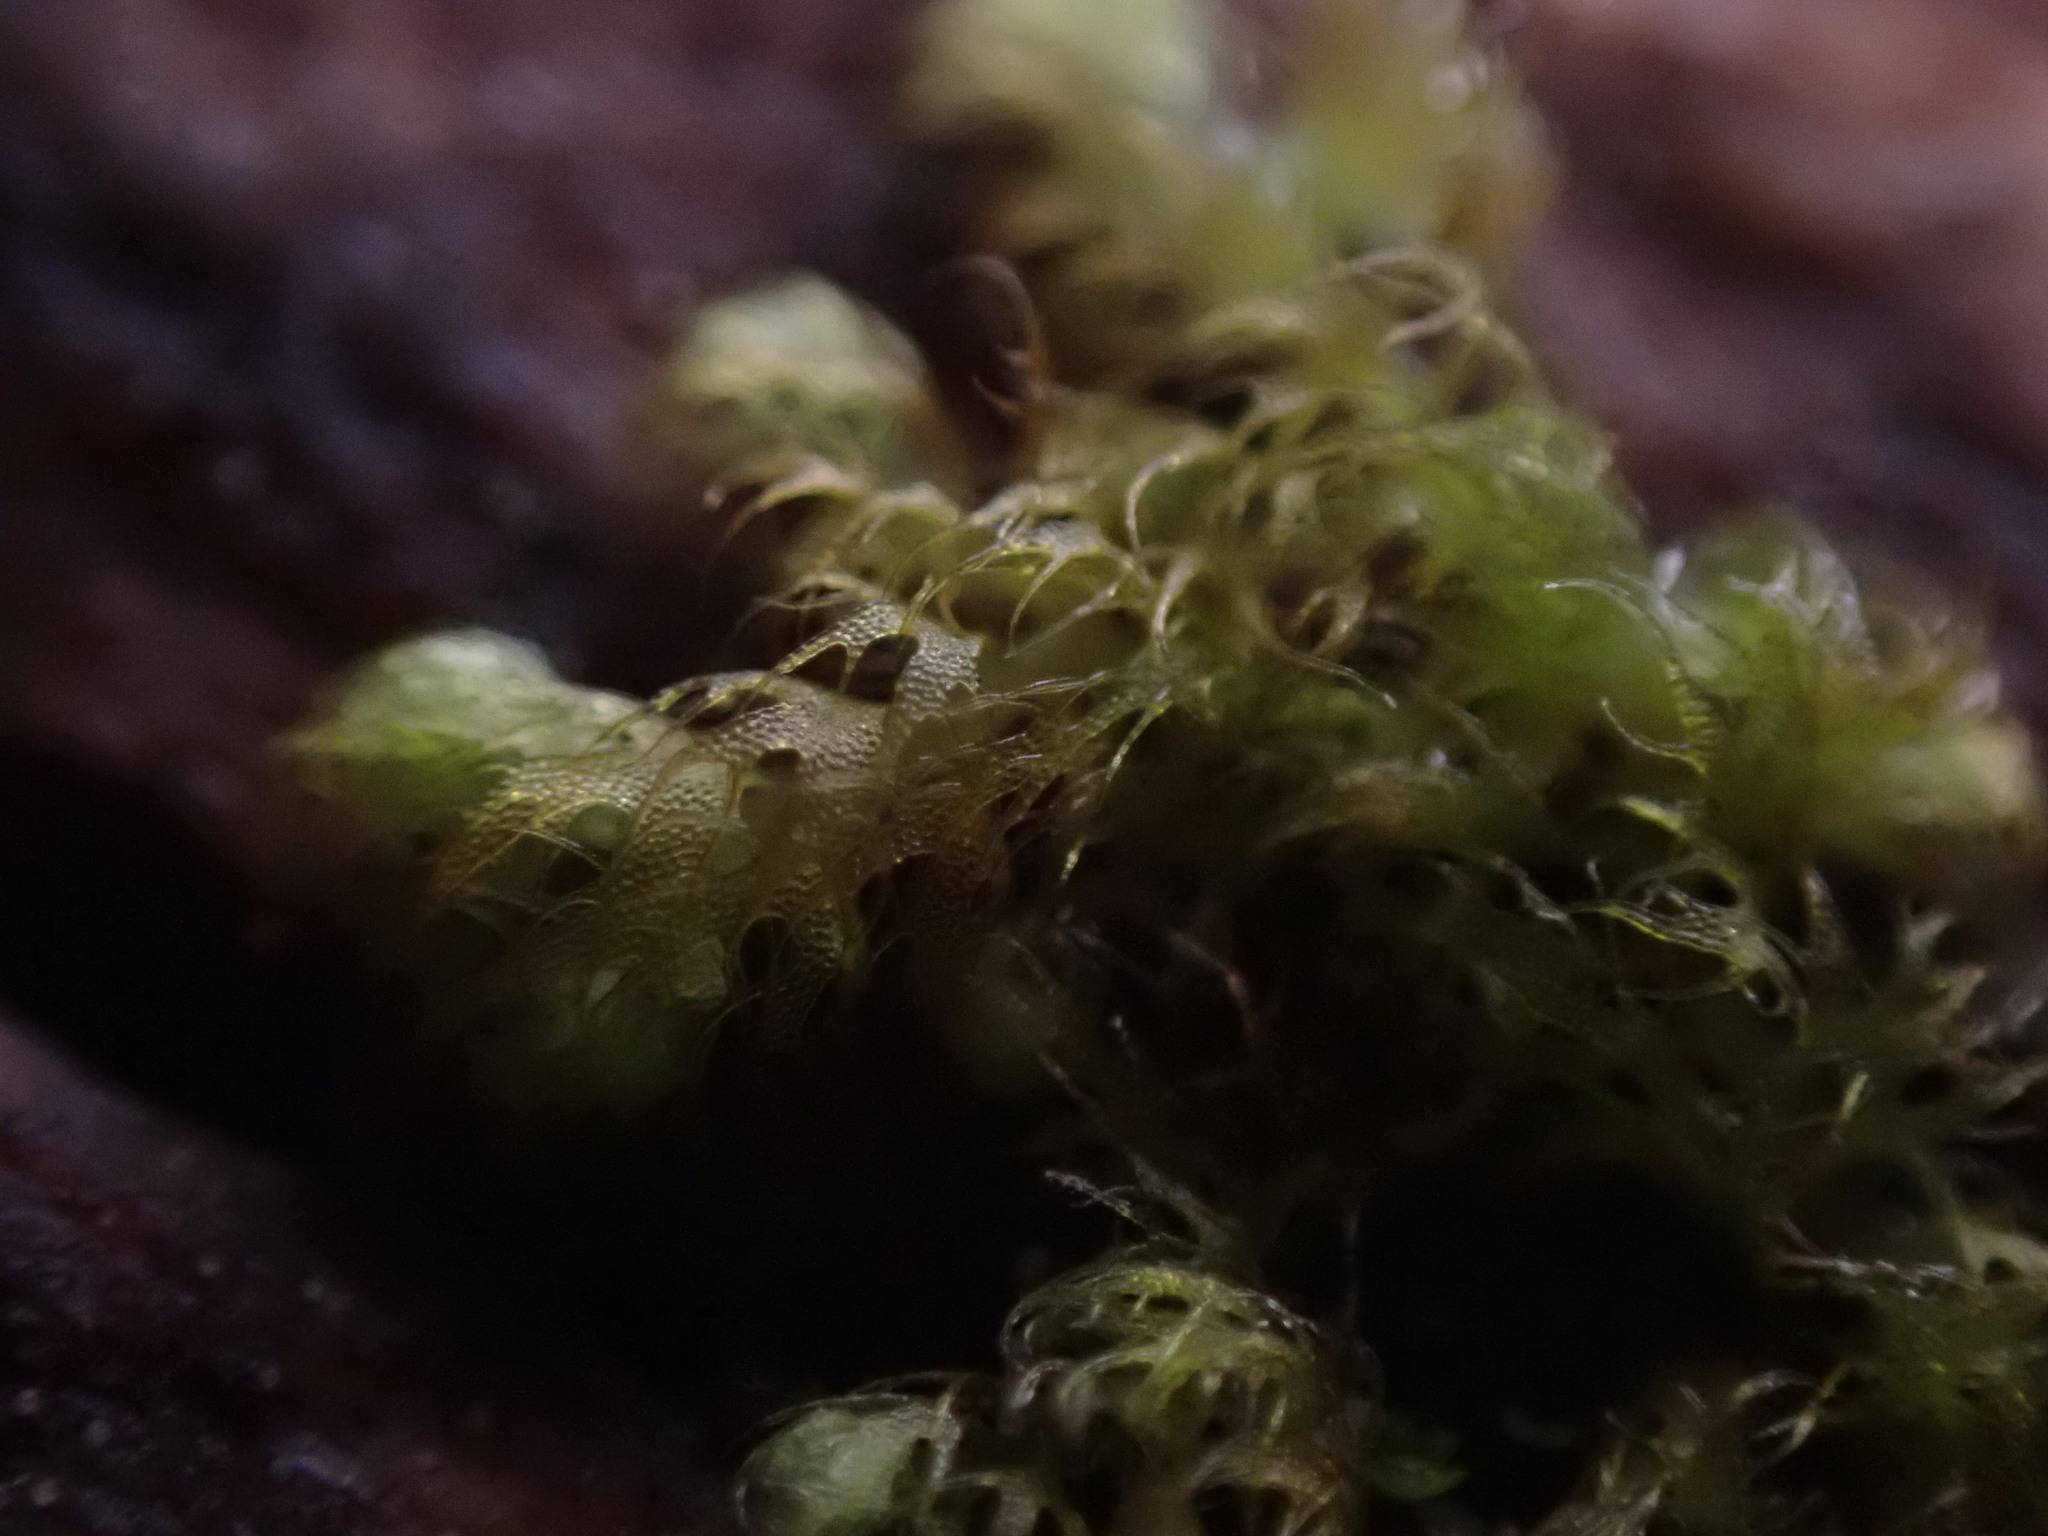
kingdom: Plantae
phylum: Marchantiophyta
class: Jungermanniopsida
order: Ptilidiales
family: Ptilidiaceae
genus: Ptilidium
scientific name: Ptilidium californicum
